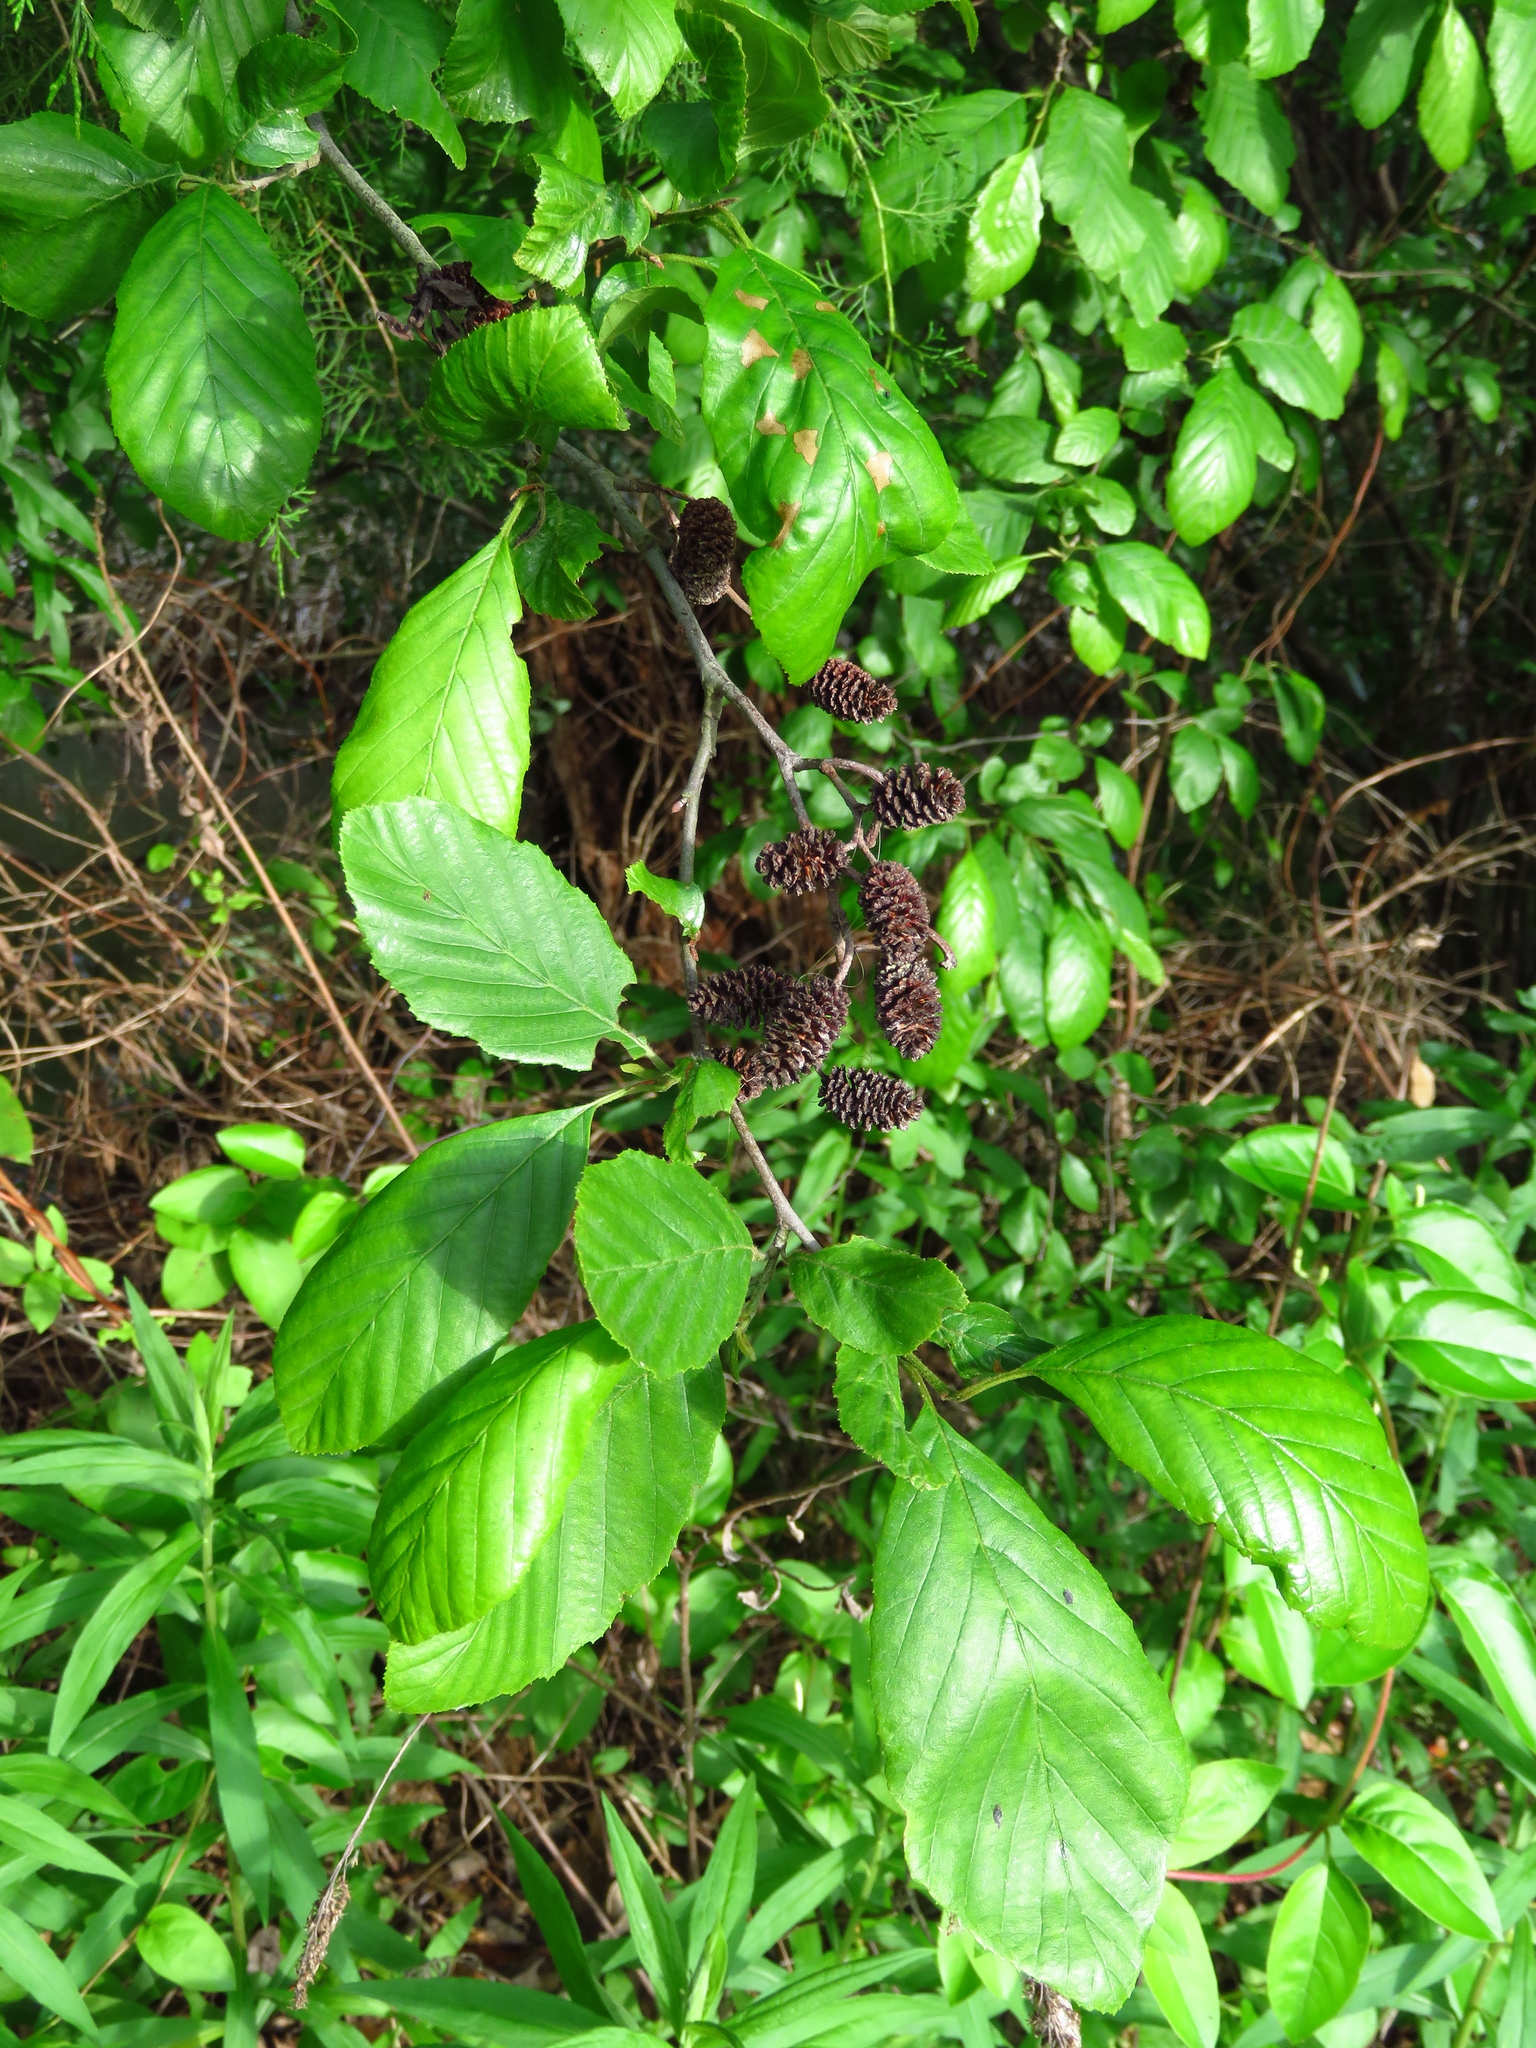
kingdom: Plantae
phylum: Tracheophyta
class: Magnoliopsida
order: Fagales
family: Betulaceae
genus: Alnus
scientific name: Alnus serrulata
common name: Hazel alder
